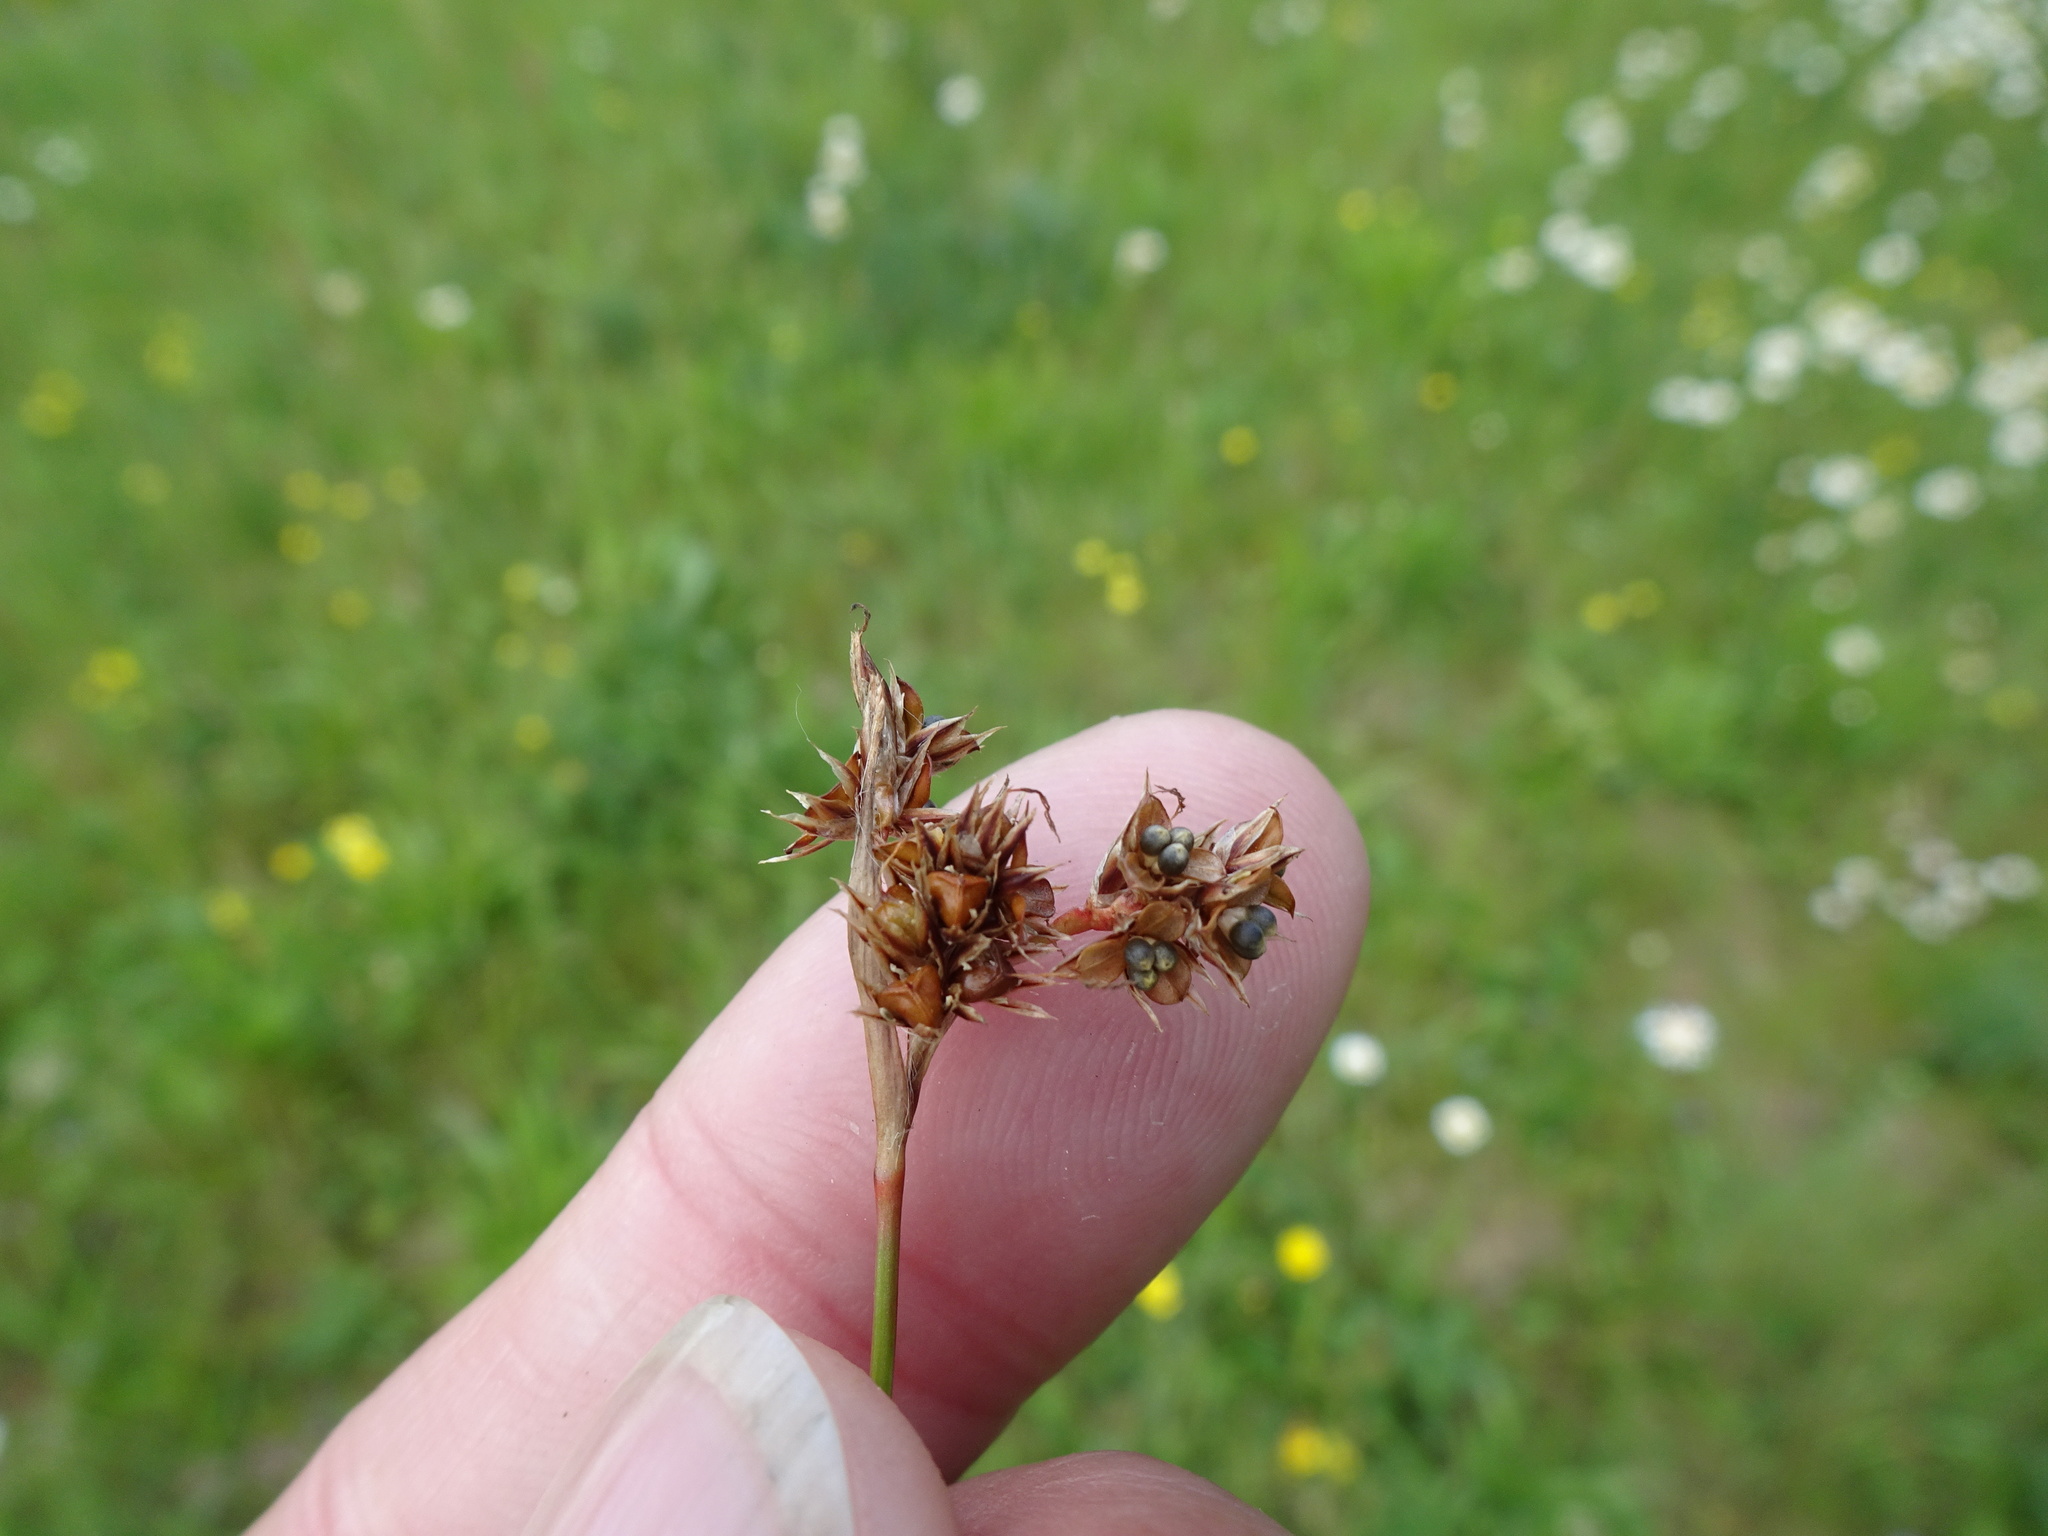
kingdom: Plantae
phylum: Tracheophyta
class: Liliopsida
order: Poales
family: Juncaceae
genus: Luzula
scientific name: Luzula campestris
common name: Field wood-rush
